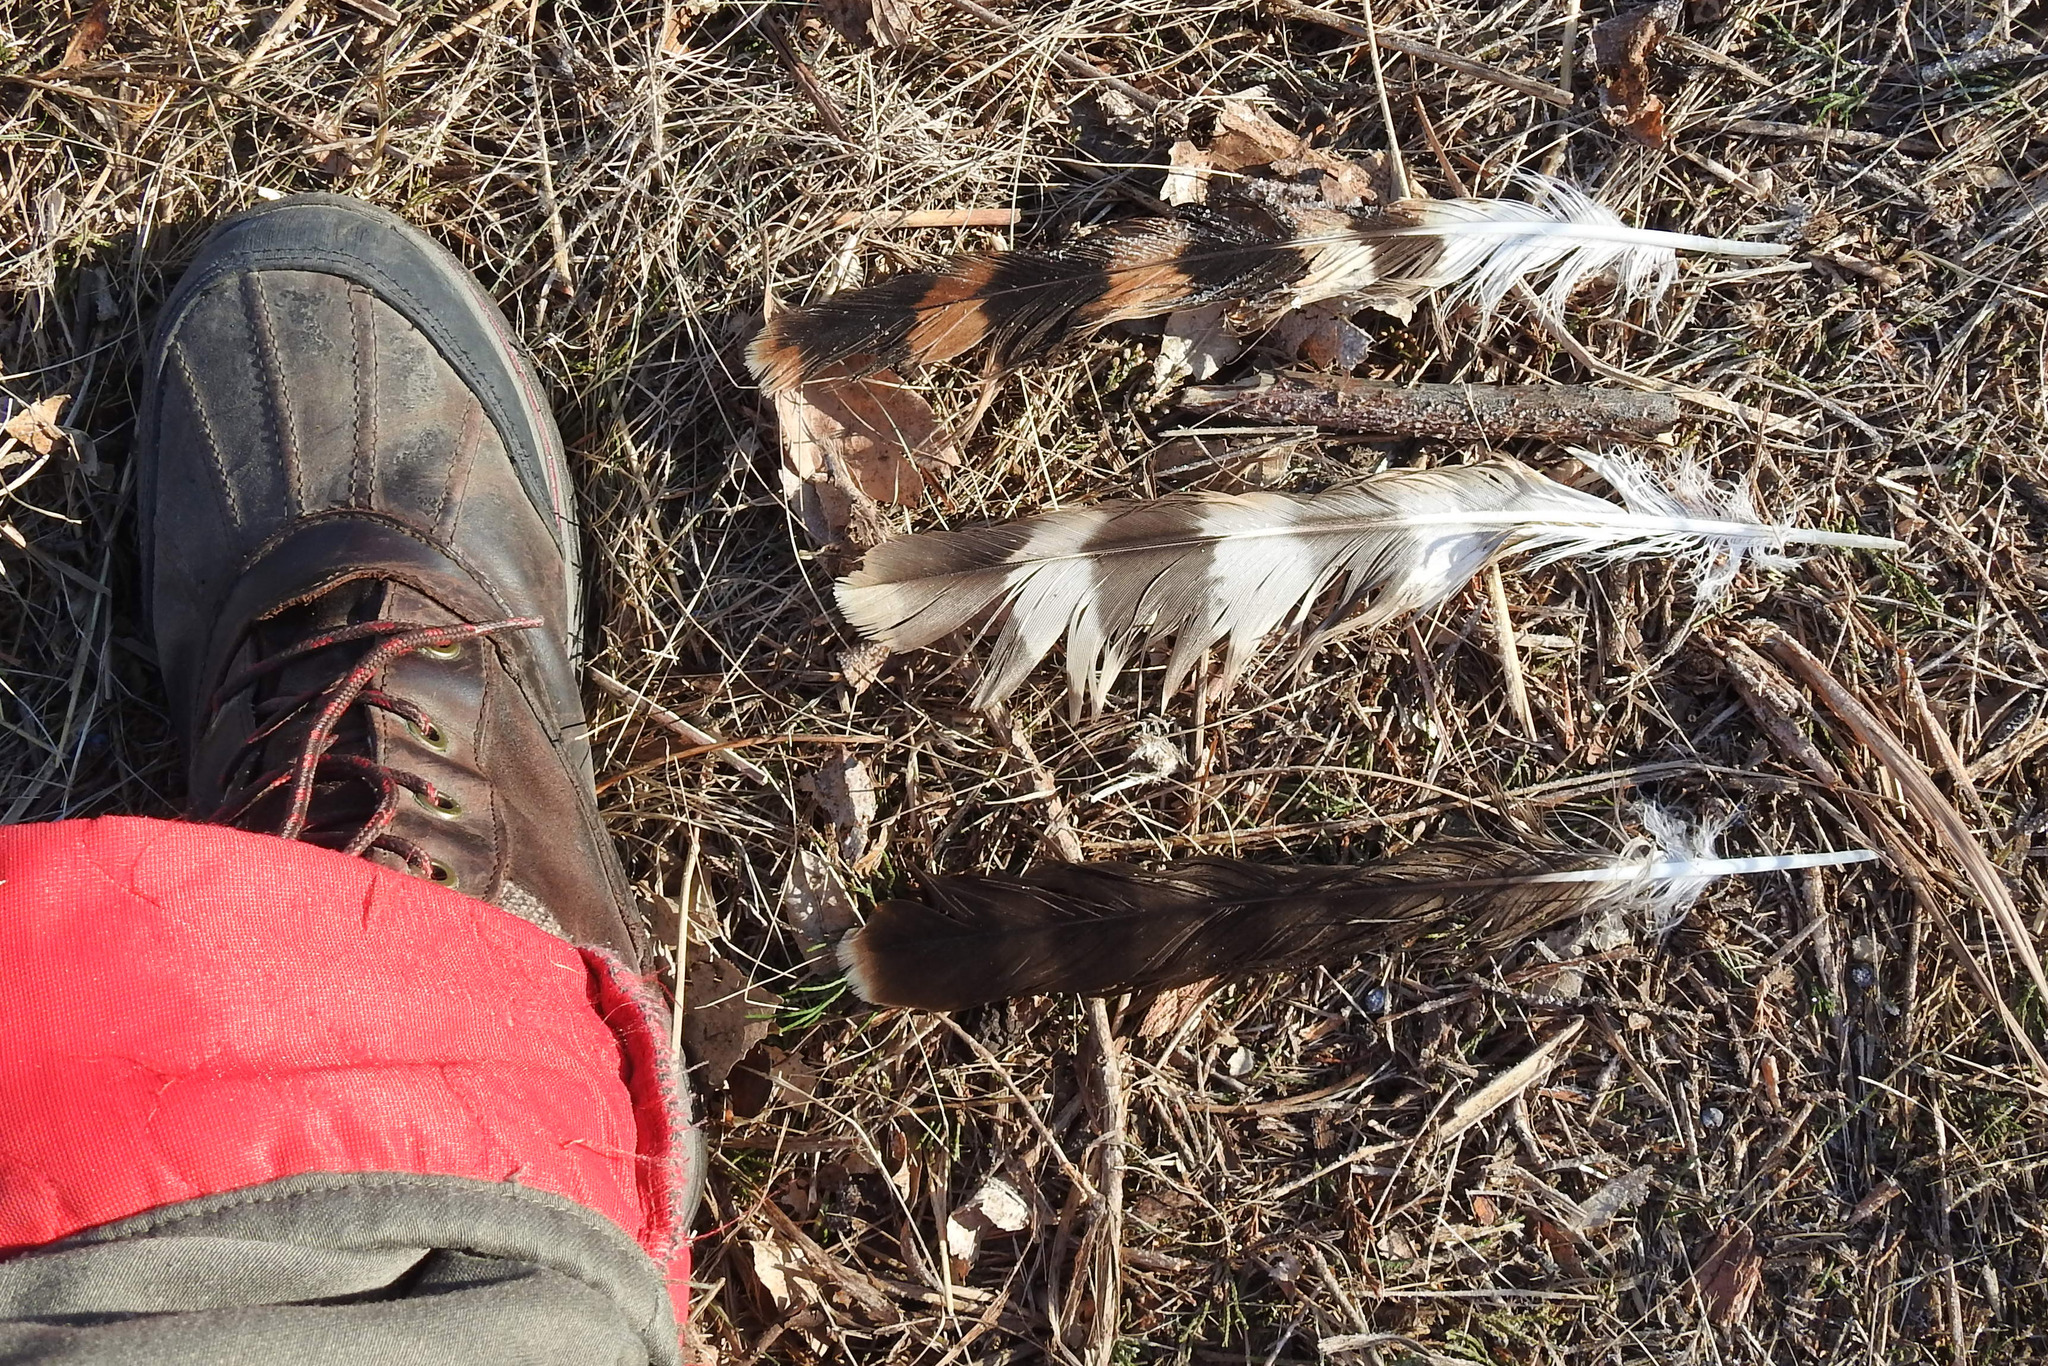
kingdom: Animalia
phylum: Chordata
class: Aves
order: Accipitriformes
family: Accipitridae
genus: Circus
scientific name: Circus cyaneus
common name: Hen harrier
